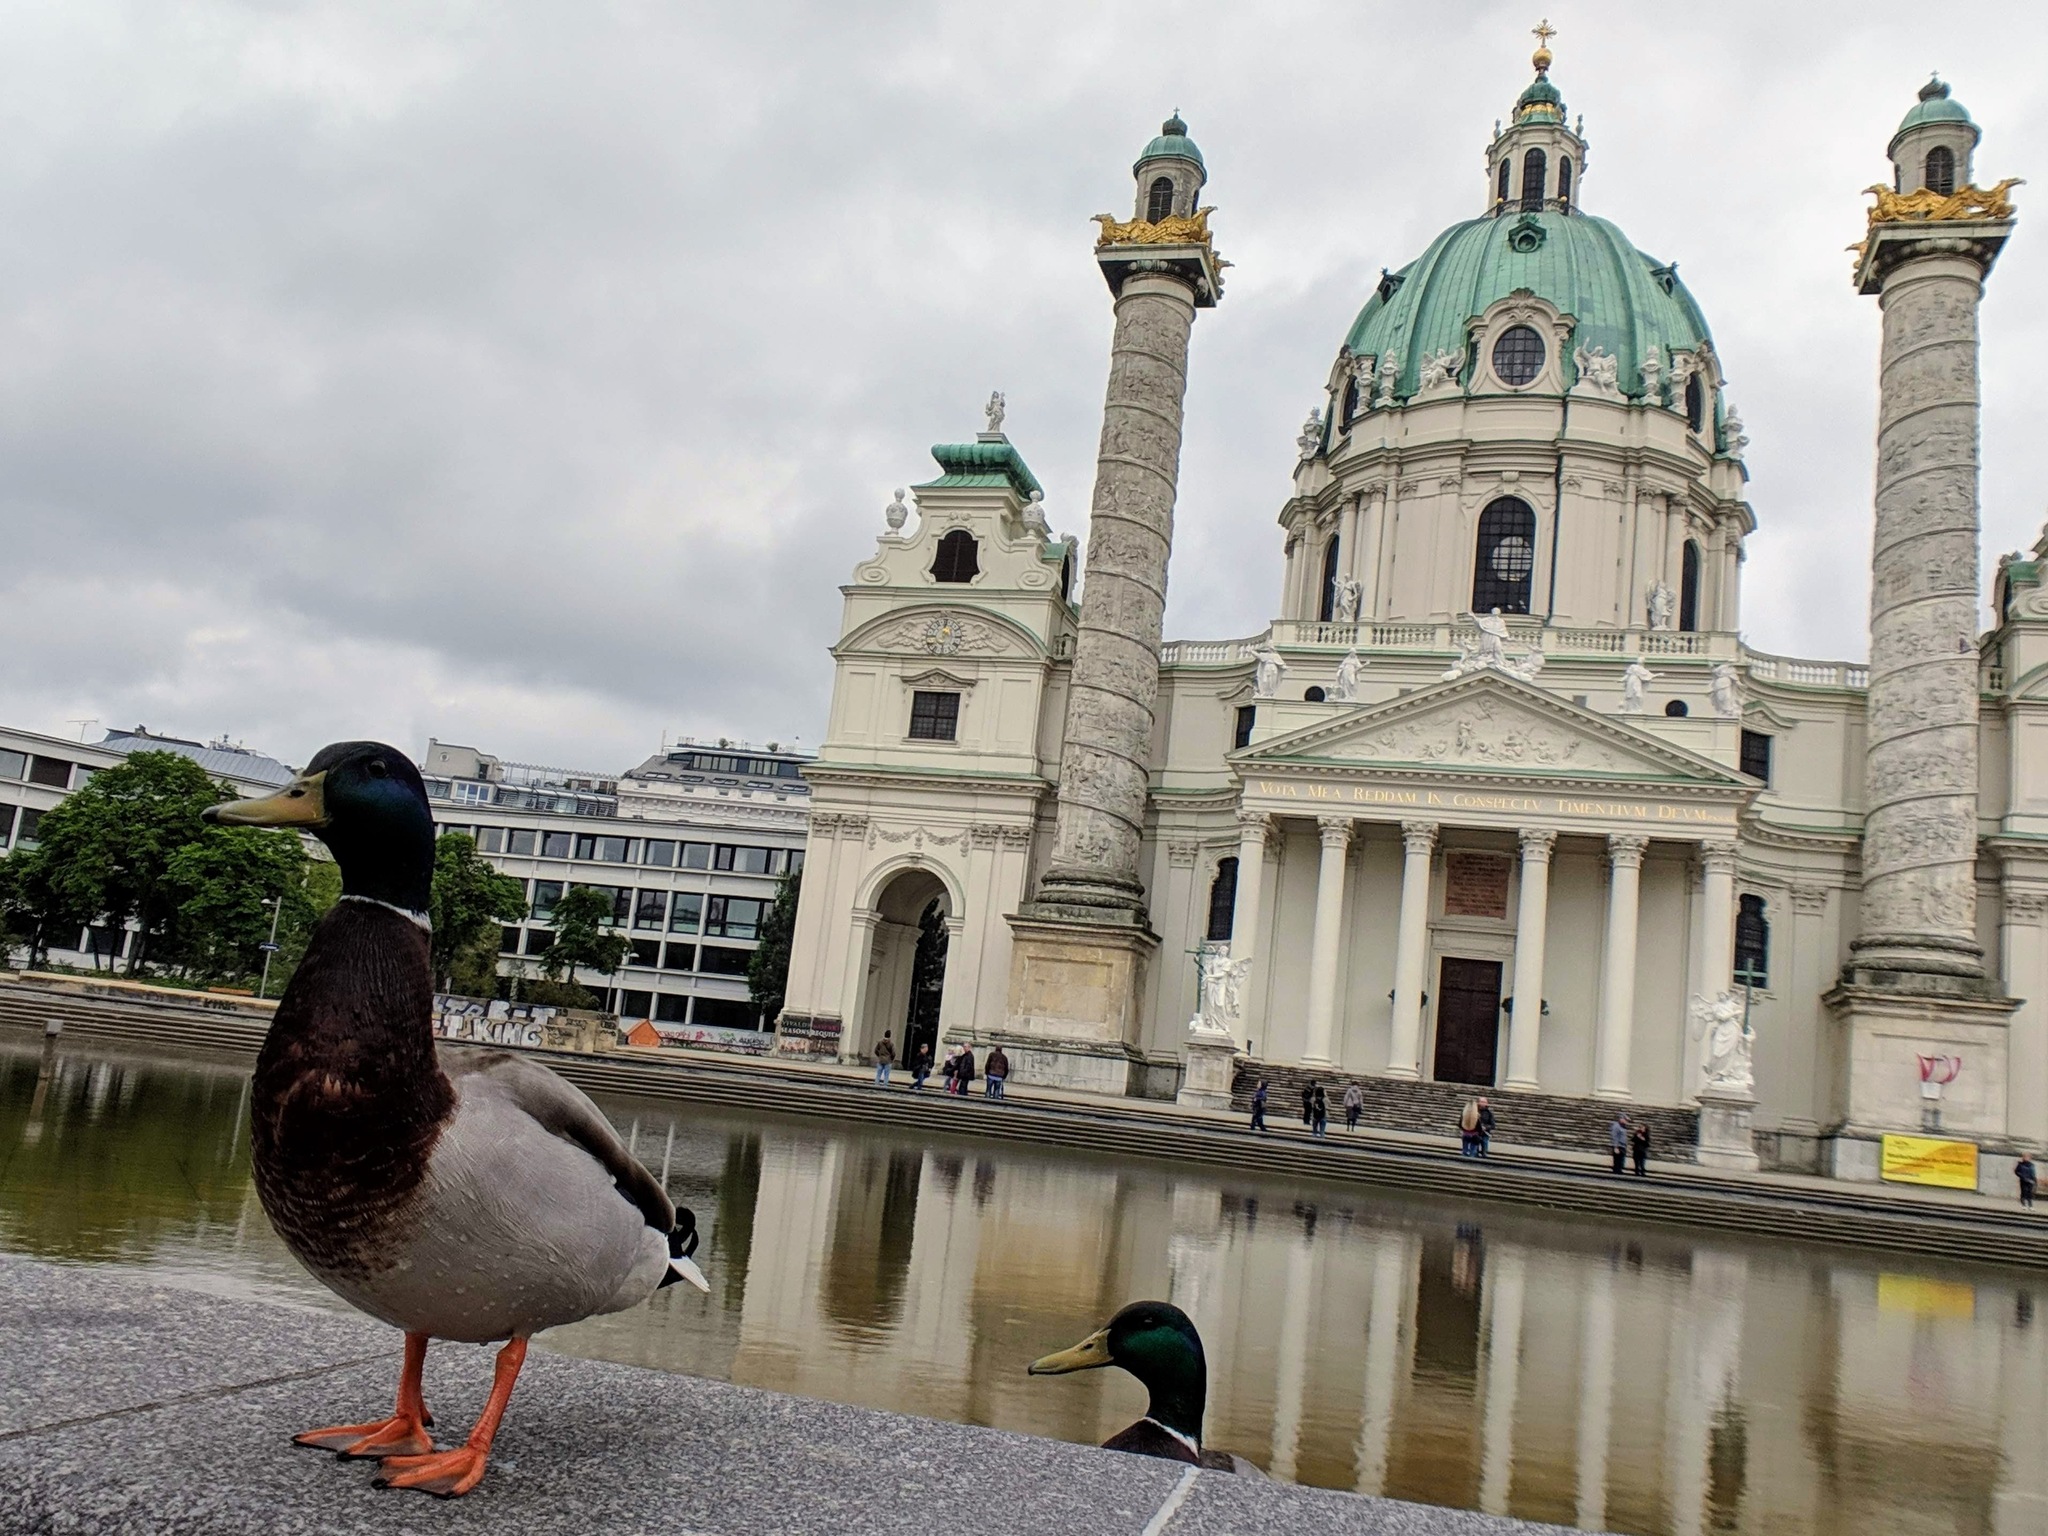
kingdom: Animalia
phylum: Chordata
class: Aves
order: Anseriformes
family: Anatidae
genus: Anas
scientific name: Anas platyrhynchos
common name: Mallard
